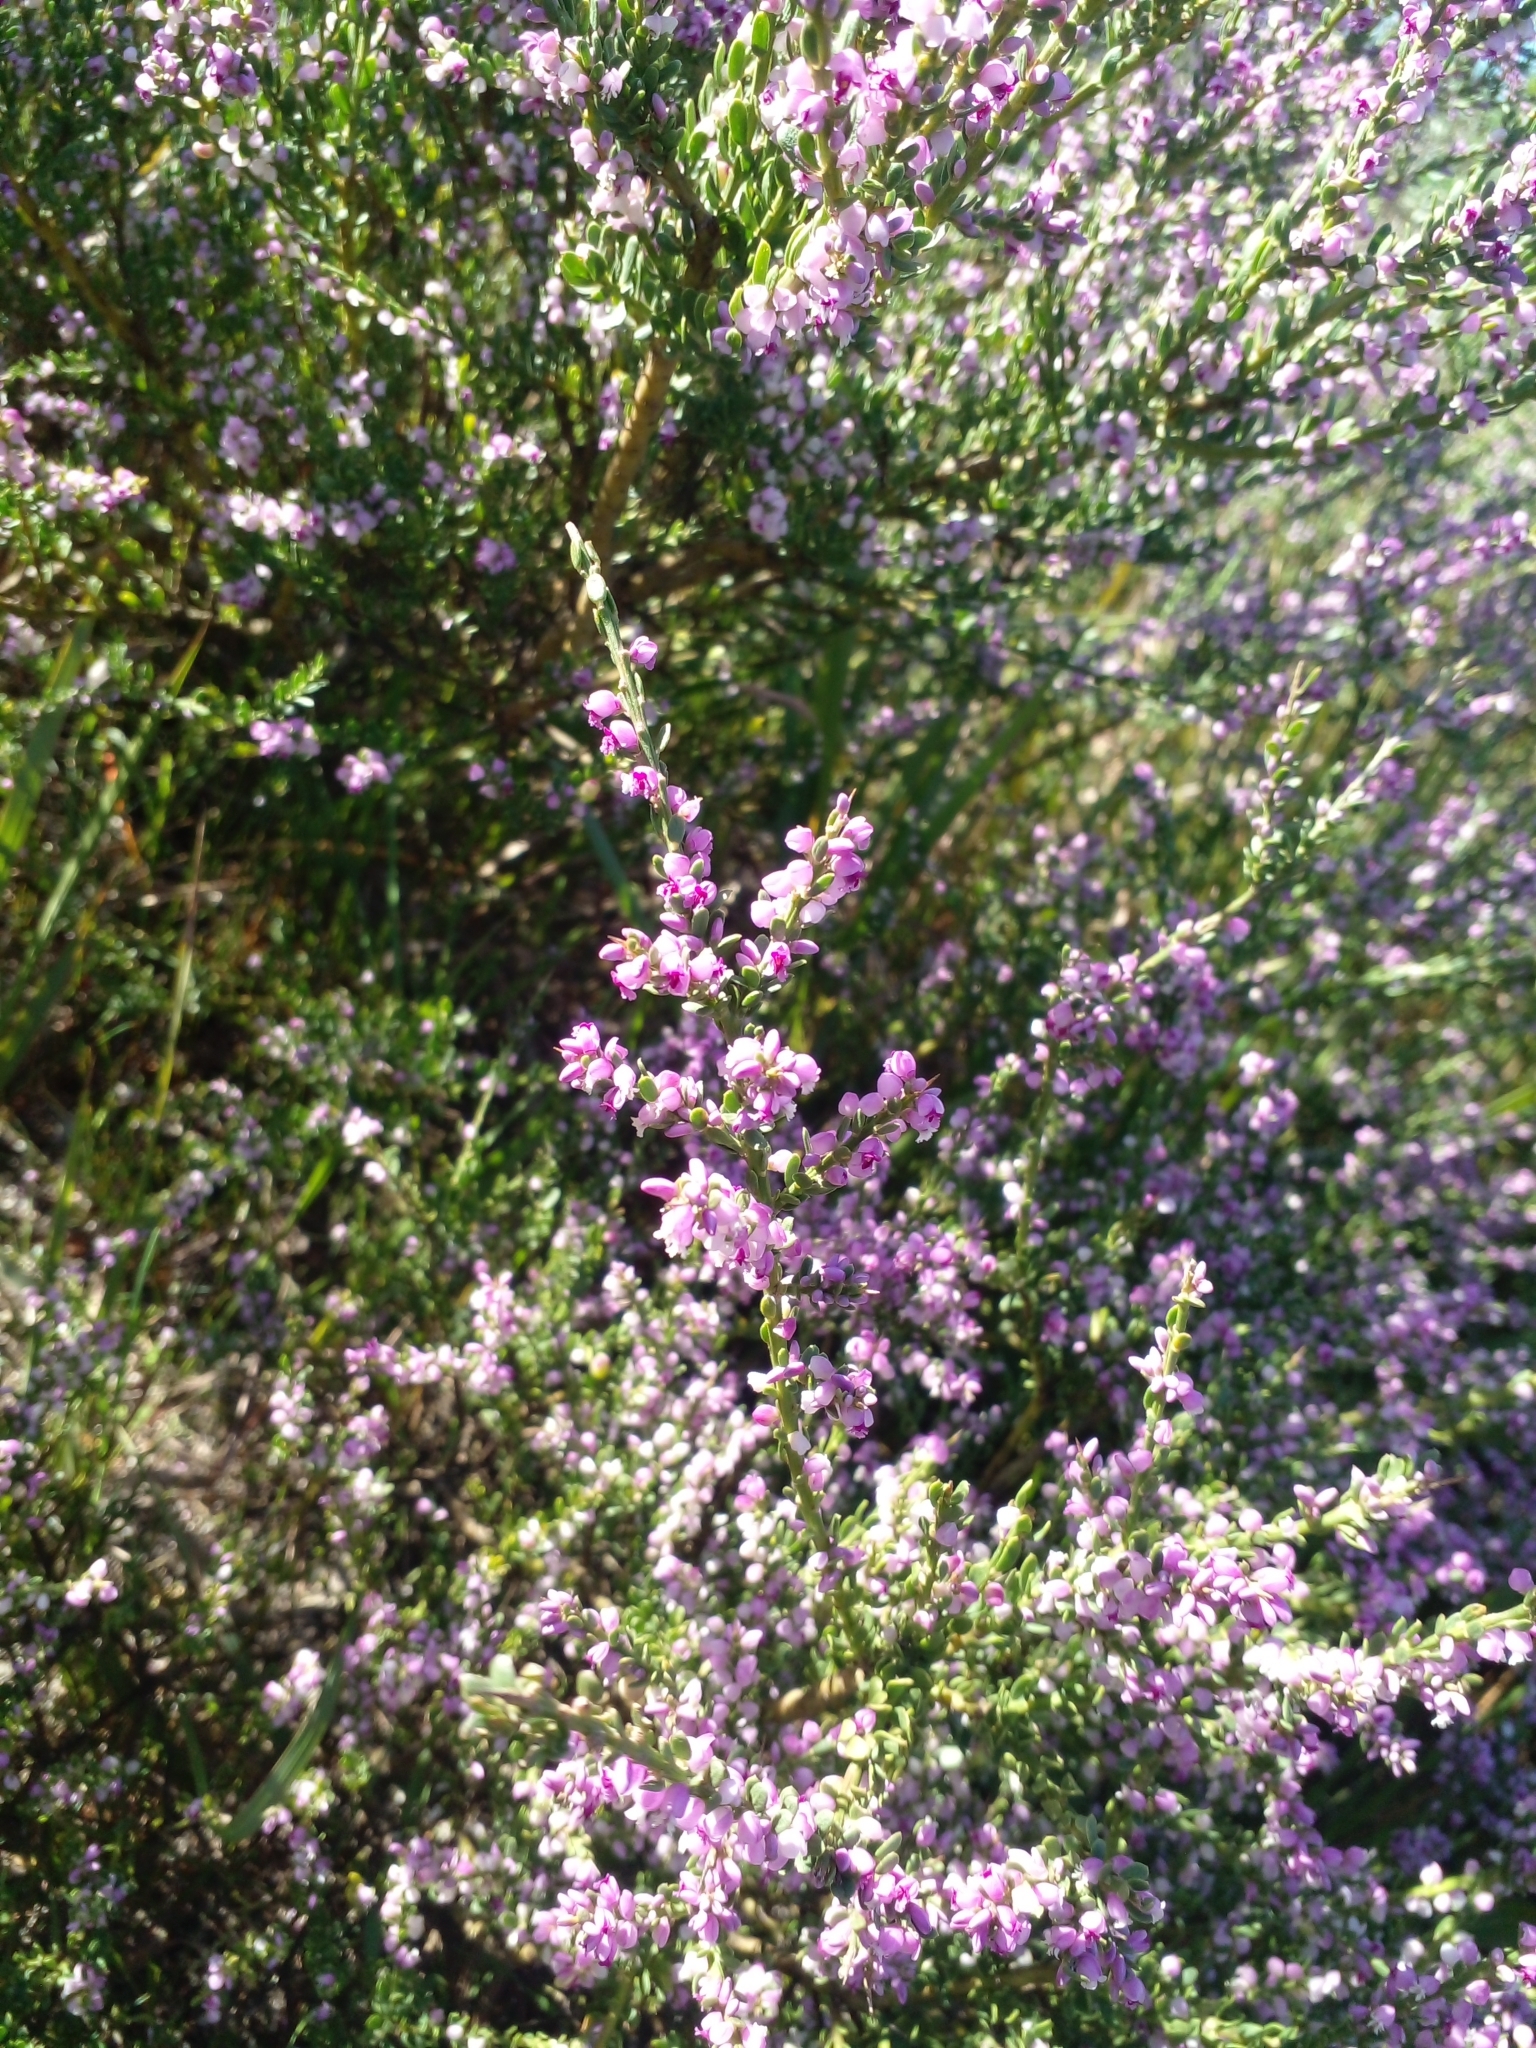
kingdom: Plantae
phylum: Tracheophyta
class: Magnoliopsida
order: Fabales
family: Polygalaceae
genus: Muraltia
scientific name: Muraltia spinosa
